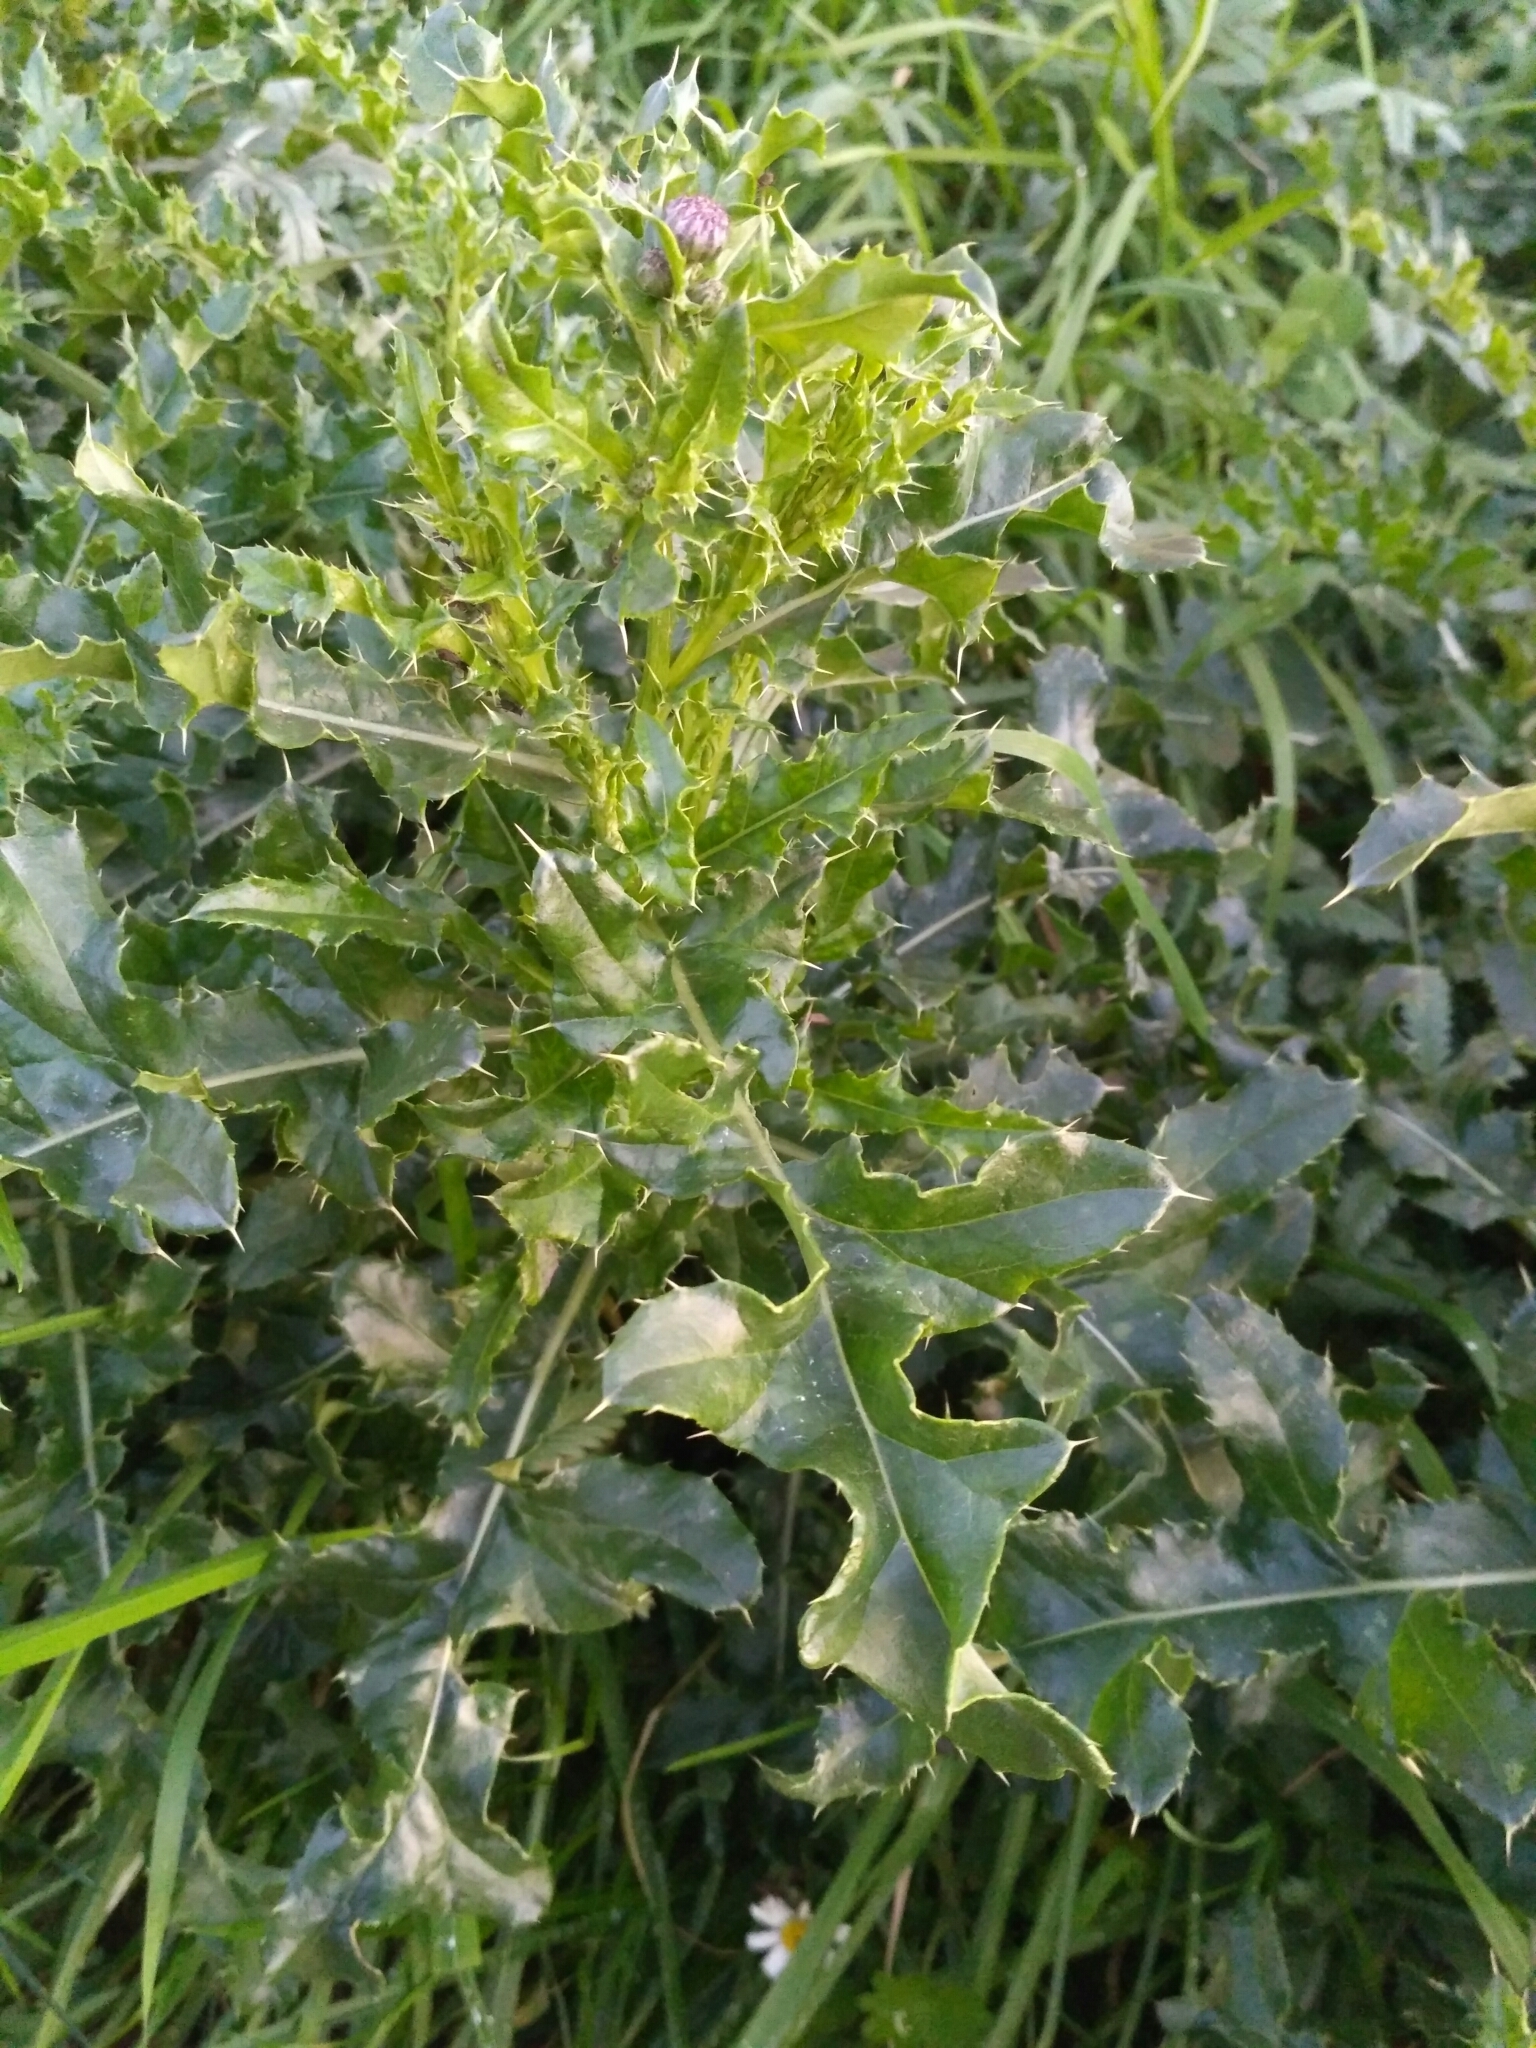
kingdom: Plantae
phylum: Tracheophyta
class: Magnoliopsida
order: Asterales
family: Asteraceae
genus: Cirsium
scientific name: Cirsium arvense
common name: Creeping thistle
